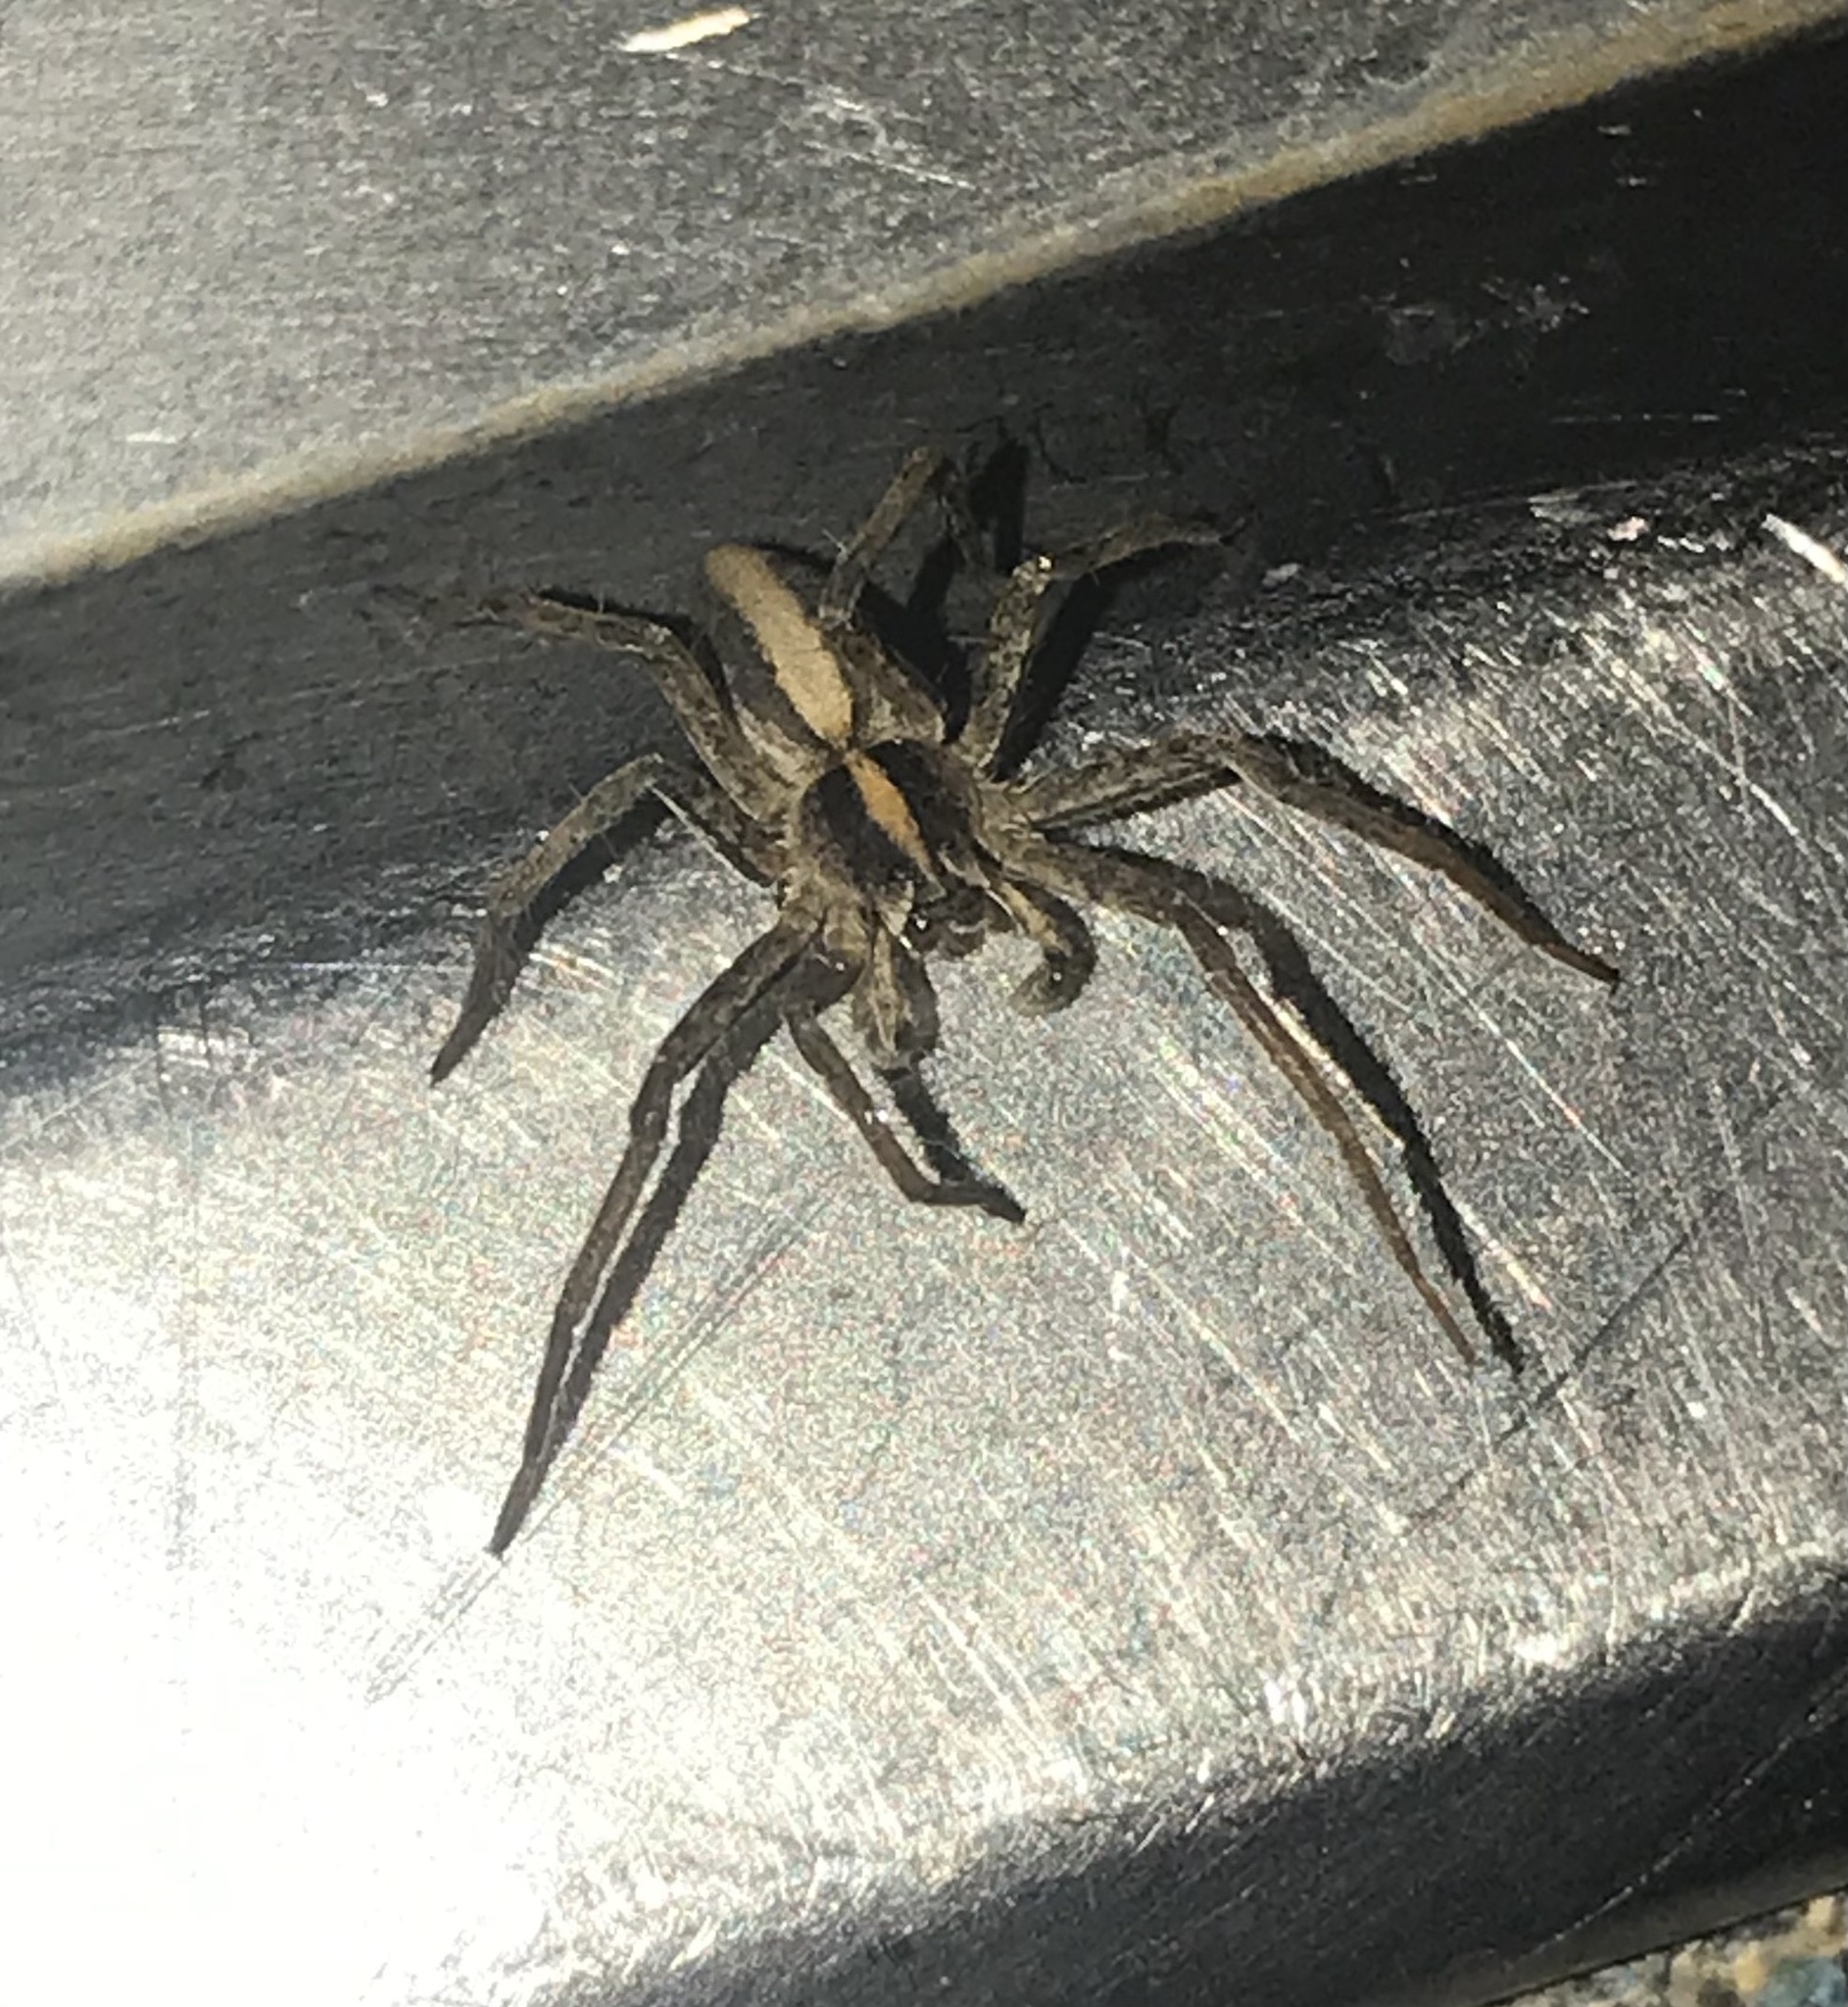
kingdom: Animalia
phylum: Arthropoda
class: Arachnida
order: Araneae
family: Pisauridae
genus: Pisaura
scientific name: Pisaura mirabilis
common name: Tent spider
